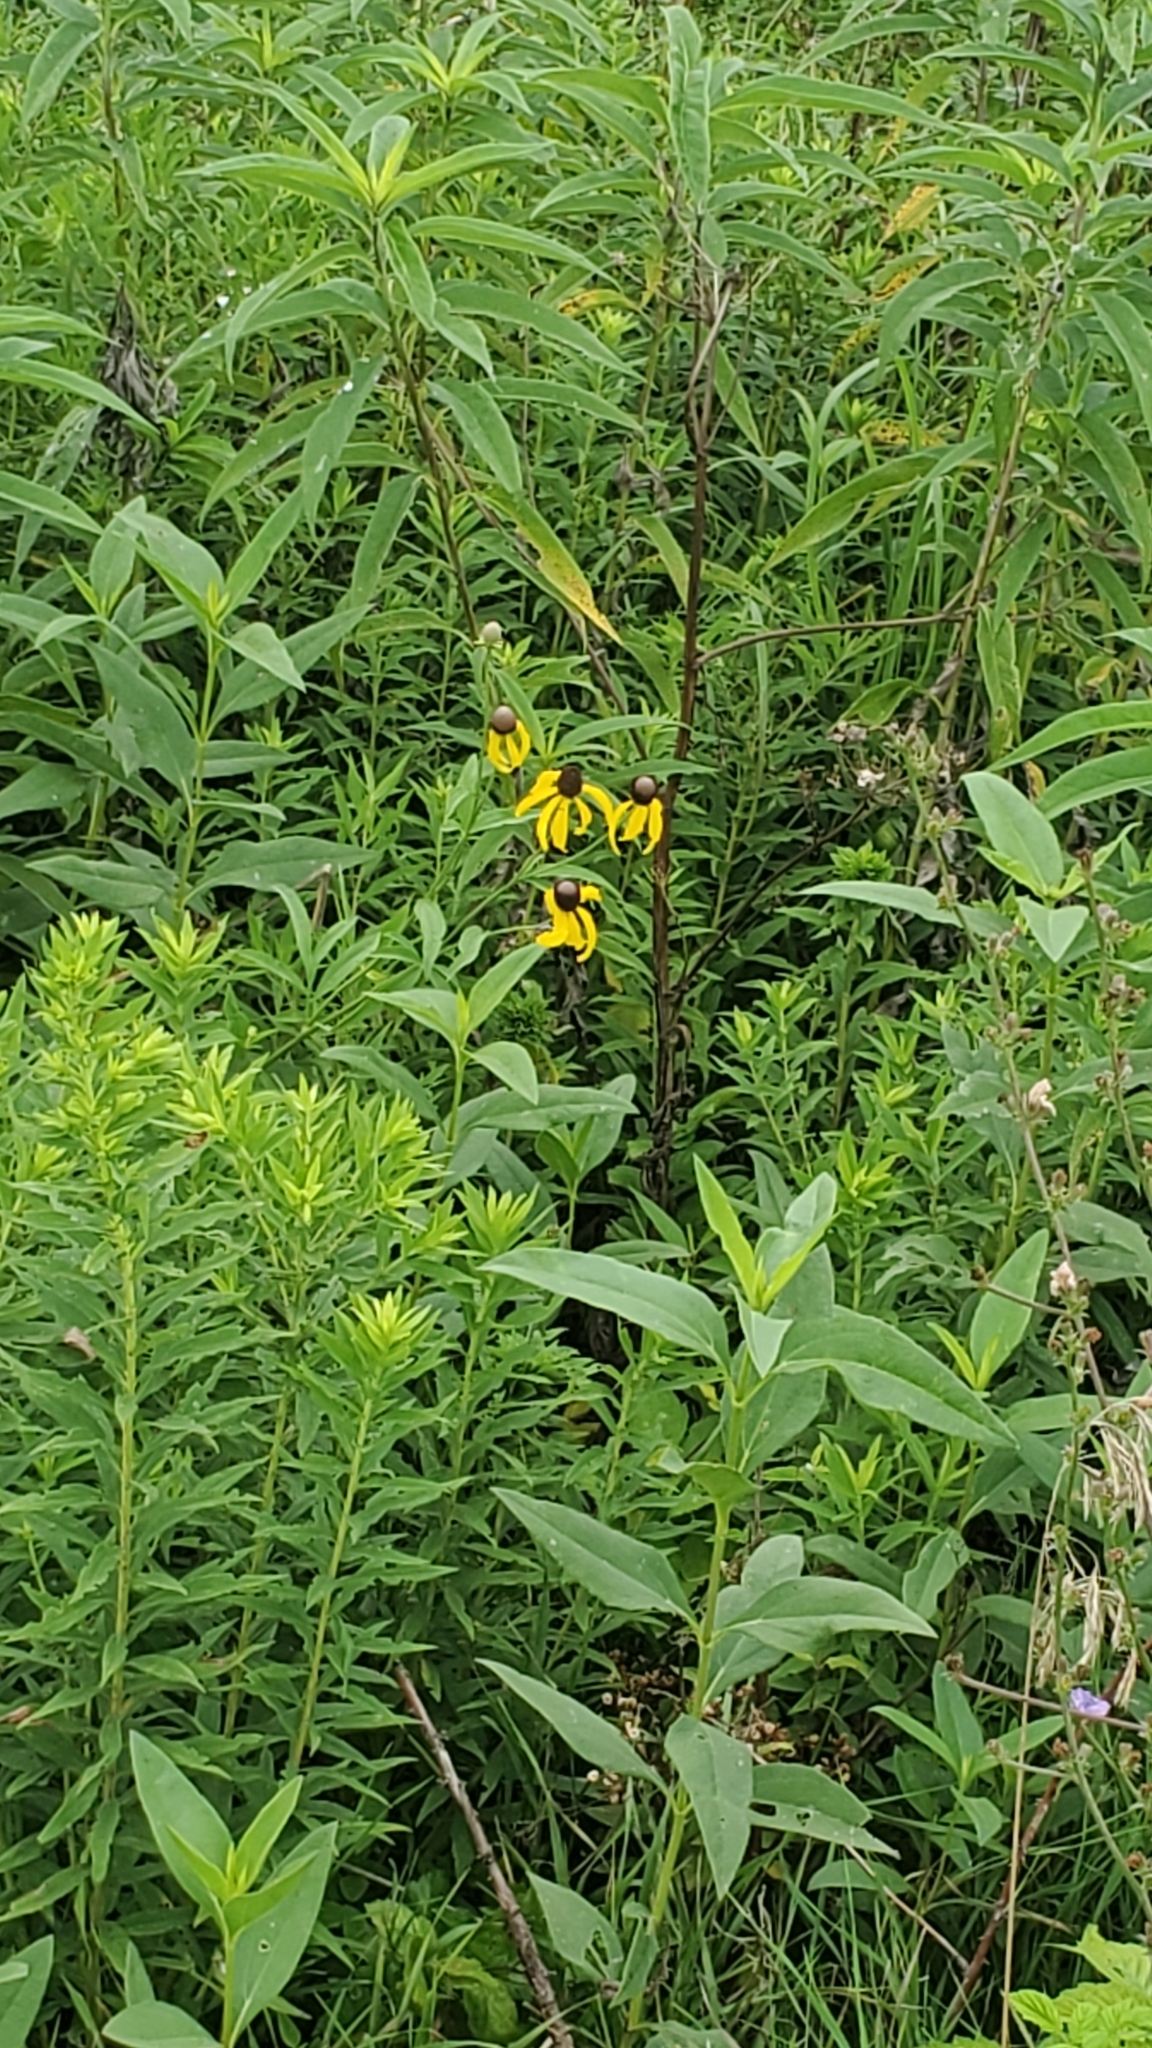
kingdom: Plantae
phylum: Tracheophyta
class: Magnoliopsida
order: Asterales
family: Asteraceae
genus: Ratibida
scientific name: Ratibida pinnata
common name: Drooping prairie-coneflower
